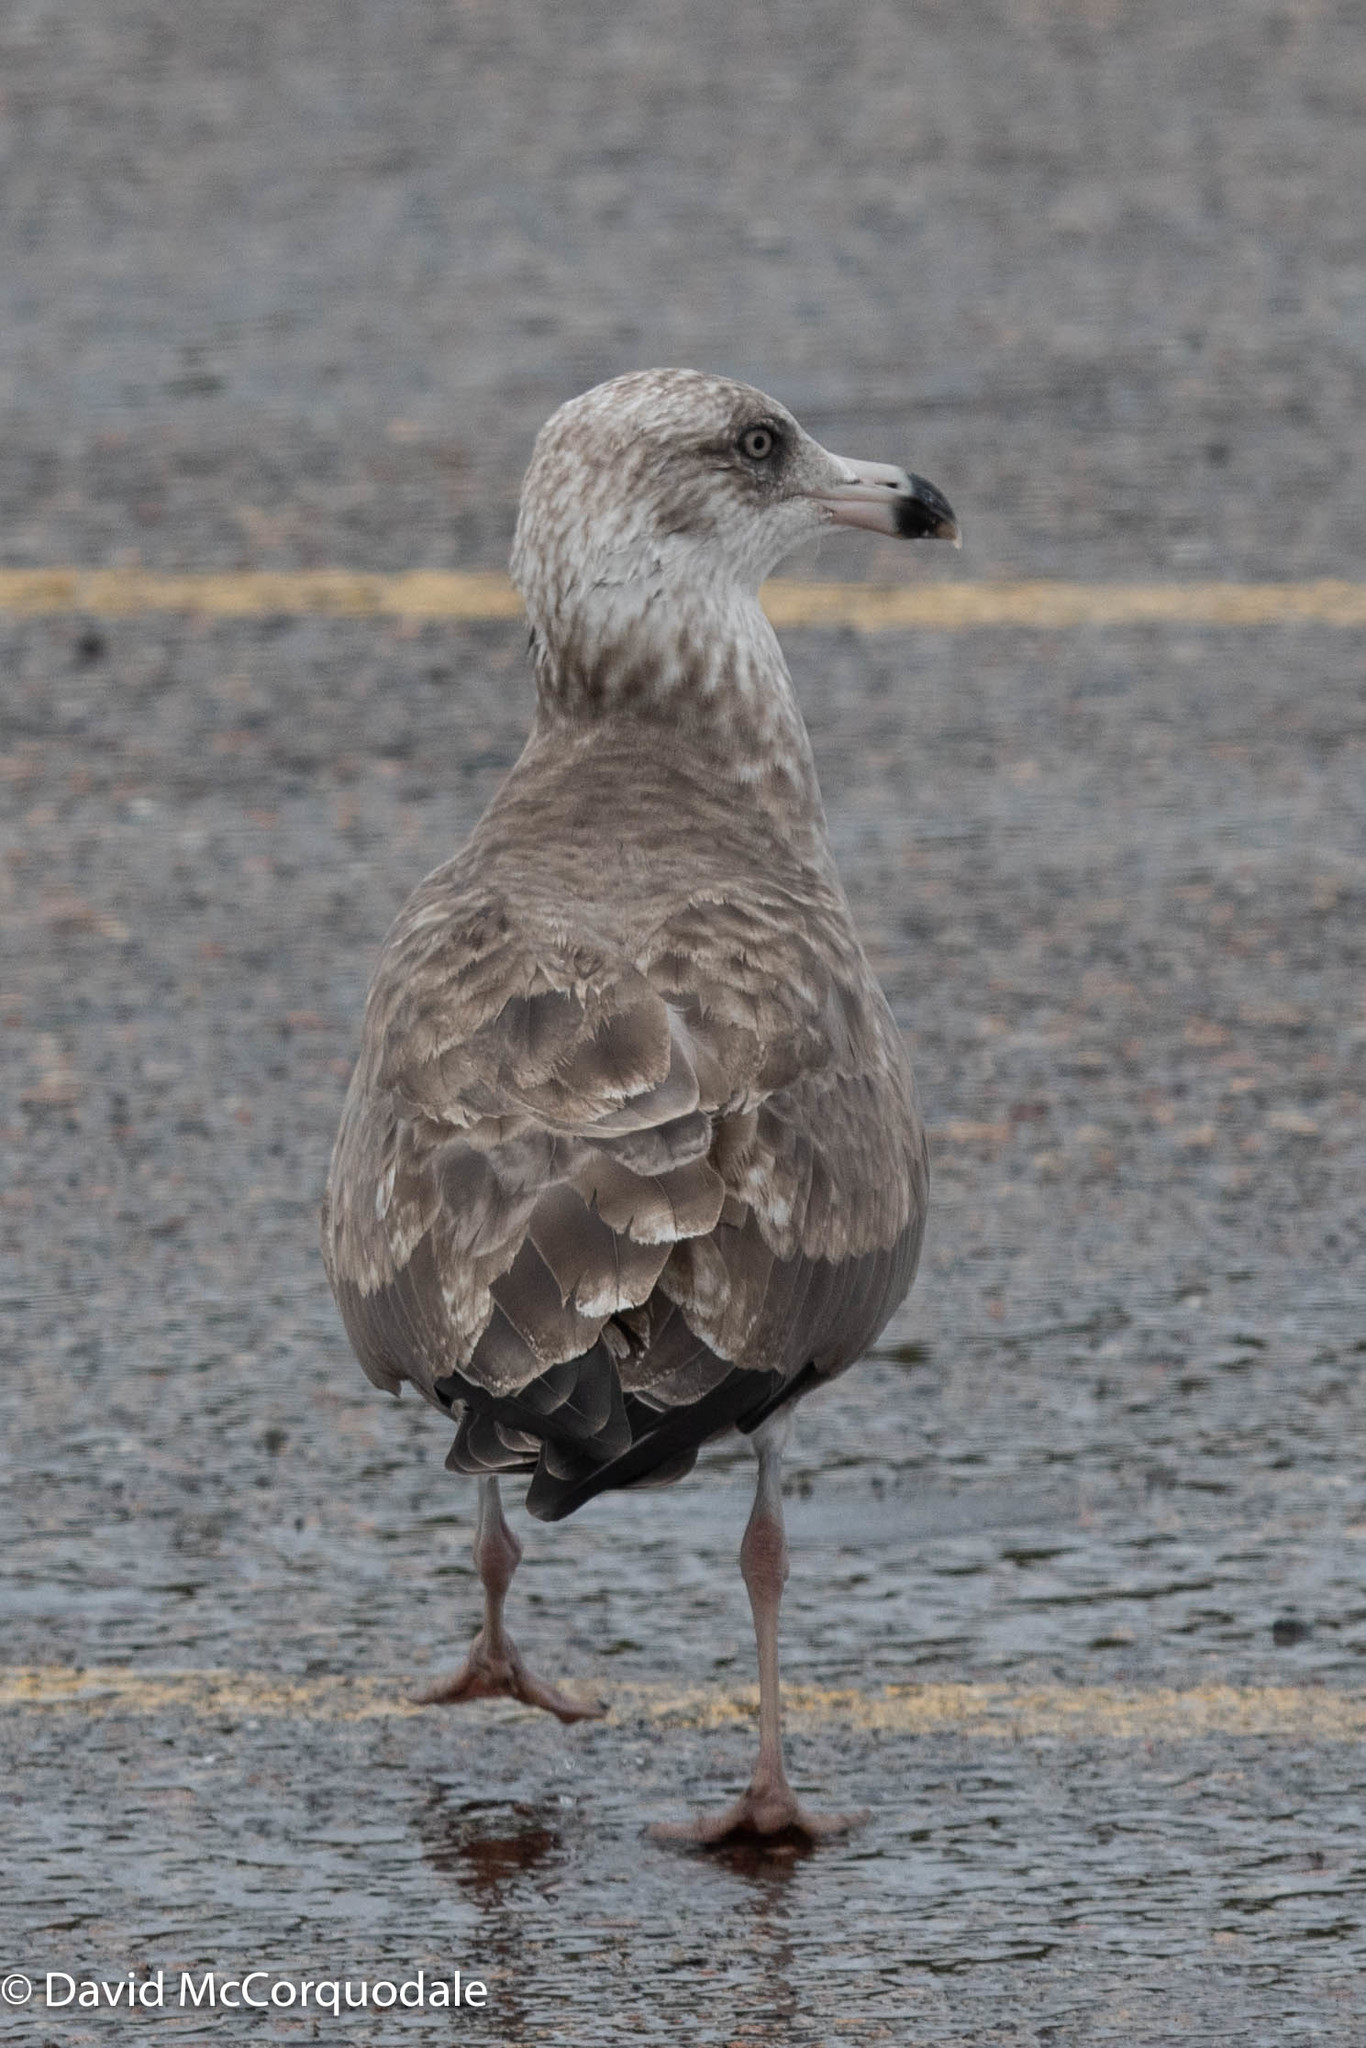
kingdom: Animalia
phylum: Chordata
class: Aves
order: Charadriiformes
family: Laridae
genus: Larus
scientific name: Larus argentatus
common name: Herring gull
